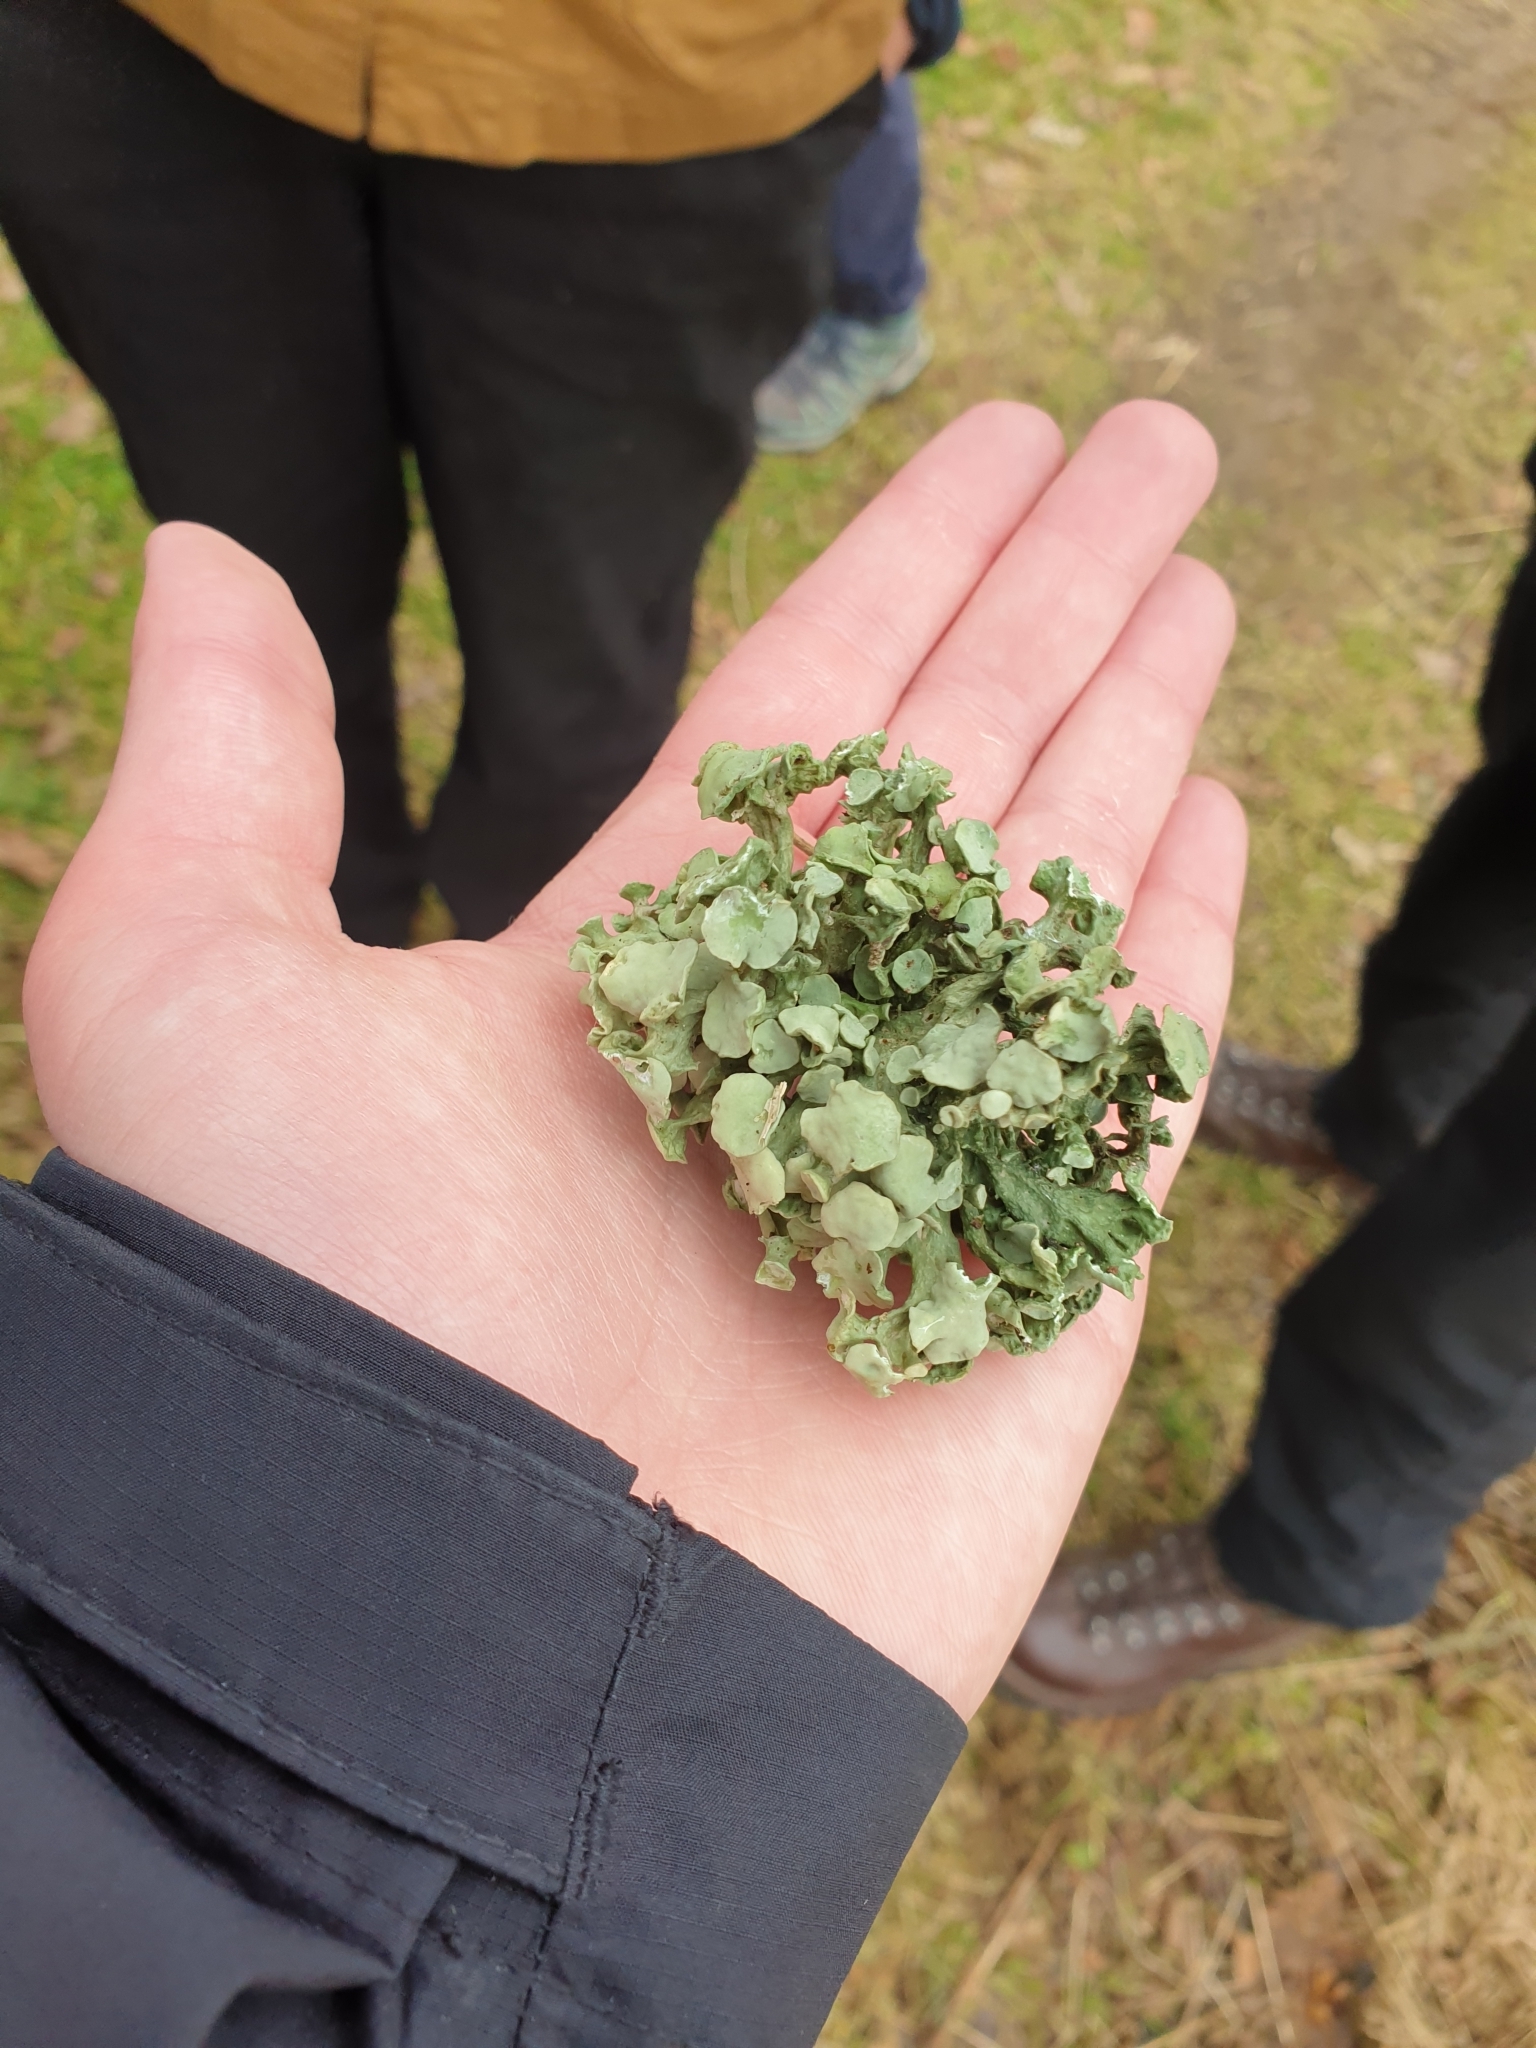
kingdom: Fungi
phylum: Ascomycota
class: Lecanoromycetes
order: Lecanorales
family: Ramalinaceae
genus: Ramalina
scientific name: Ramalina fastigiata
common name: Dotted ribbon lichen
